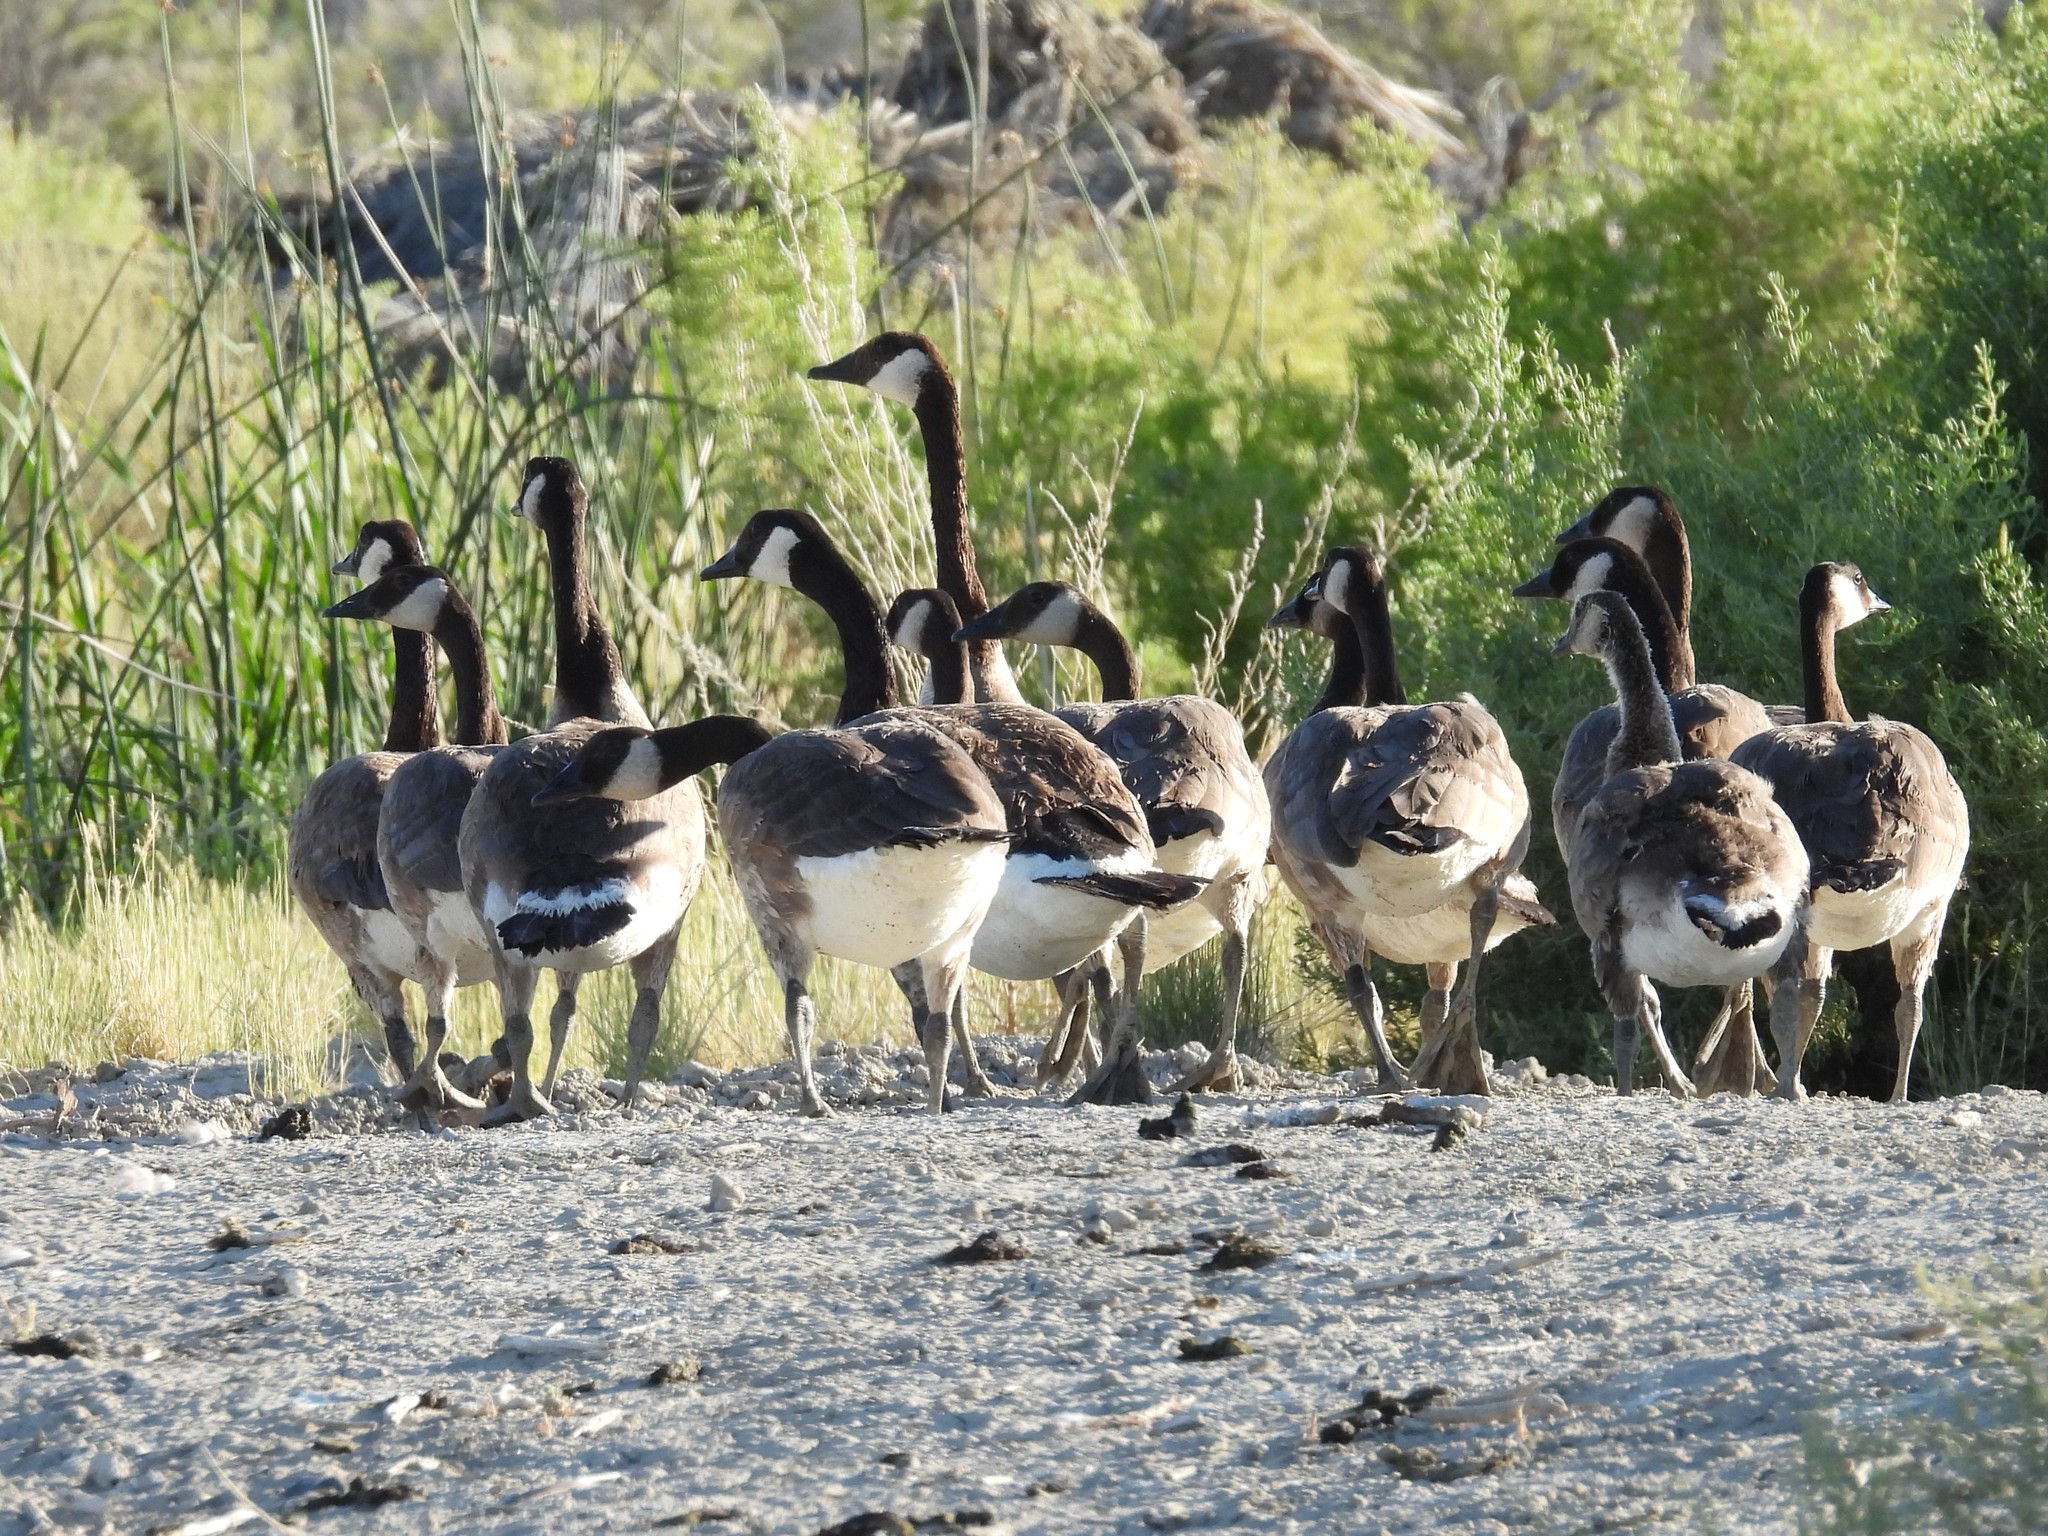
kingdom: Animalia
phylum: Chordata
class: Aves
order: Anseriformes
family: Anatidae
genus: Branta
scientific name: Branta canadensis
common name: Canada goose
